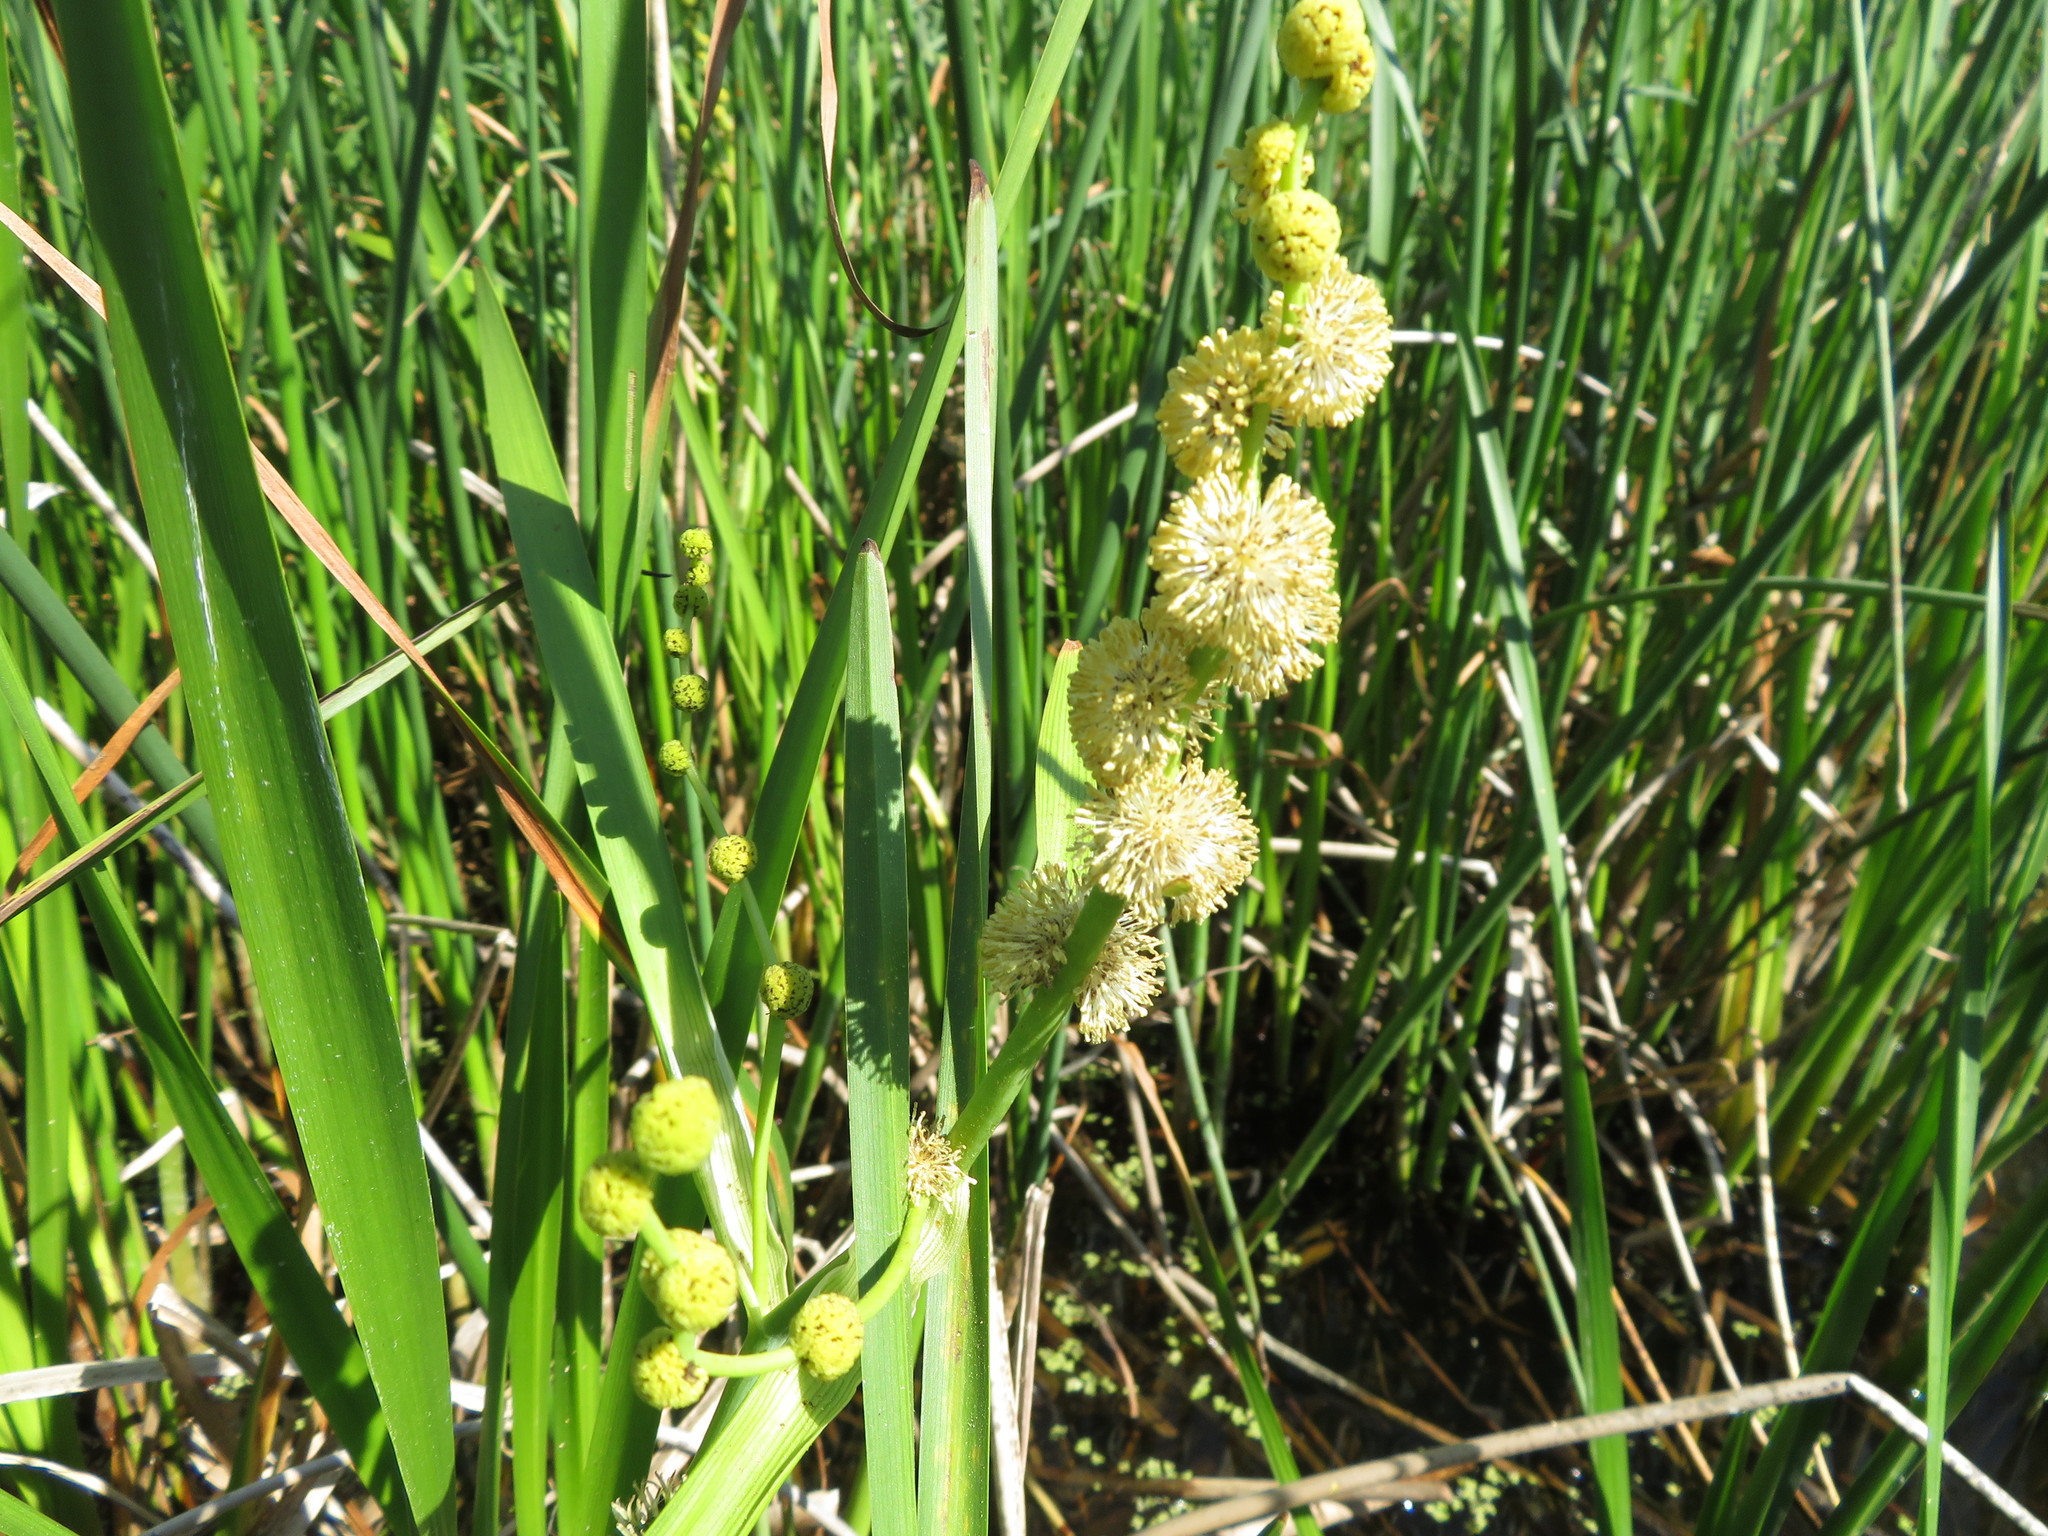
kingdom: Plantae
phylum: Tracheophyta
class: Liliopsida
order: Poales
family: Typhaceae
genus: Sparganium
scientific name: Sparganium eurycarpum
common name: Broad-fruited burreed
